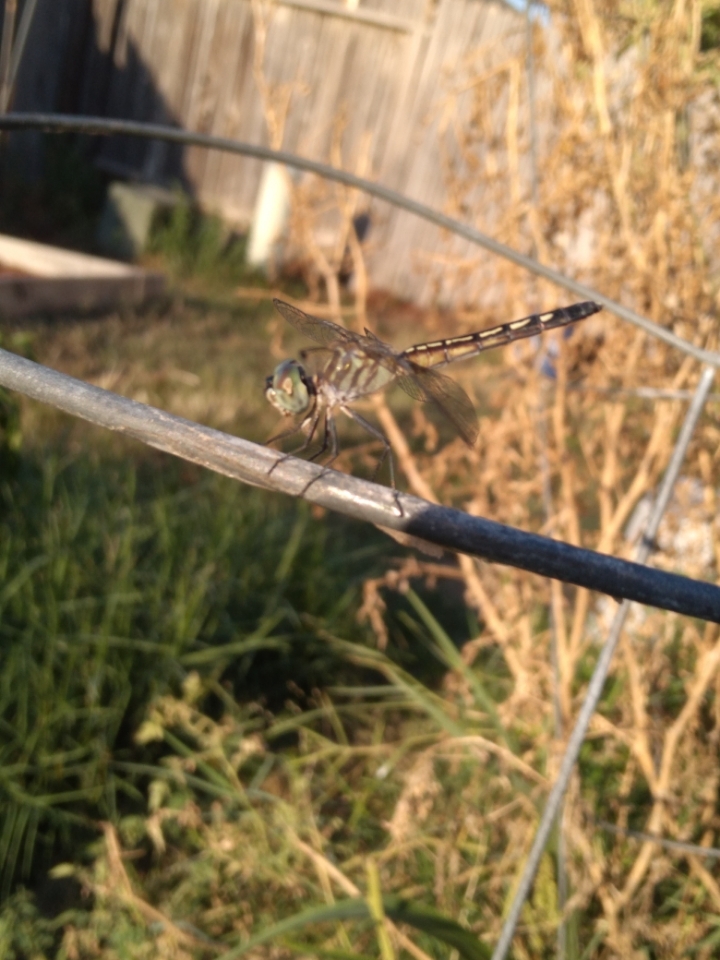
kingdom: Animalia
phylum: Arthropoda
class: Insecta
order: Odonata
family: Libellulidae
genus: Pachydiplax
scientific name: Pachydiplax longipennis
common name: Blue dasher
